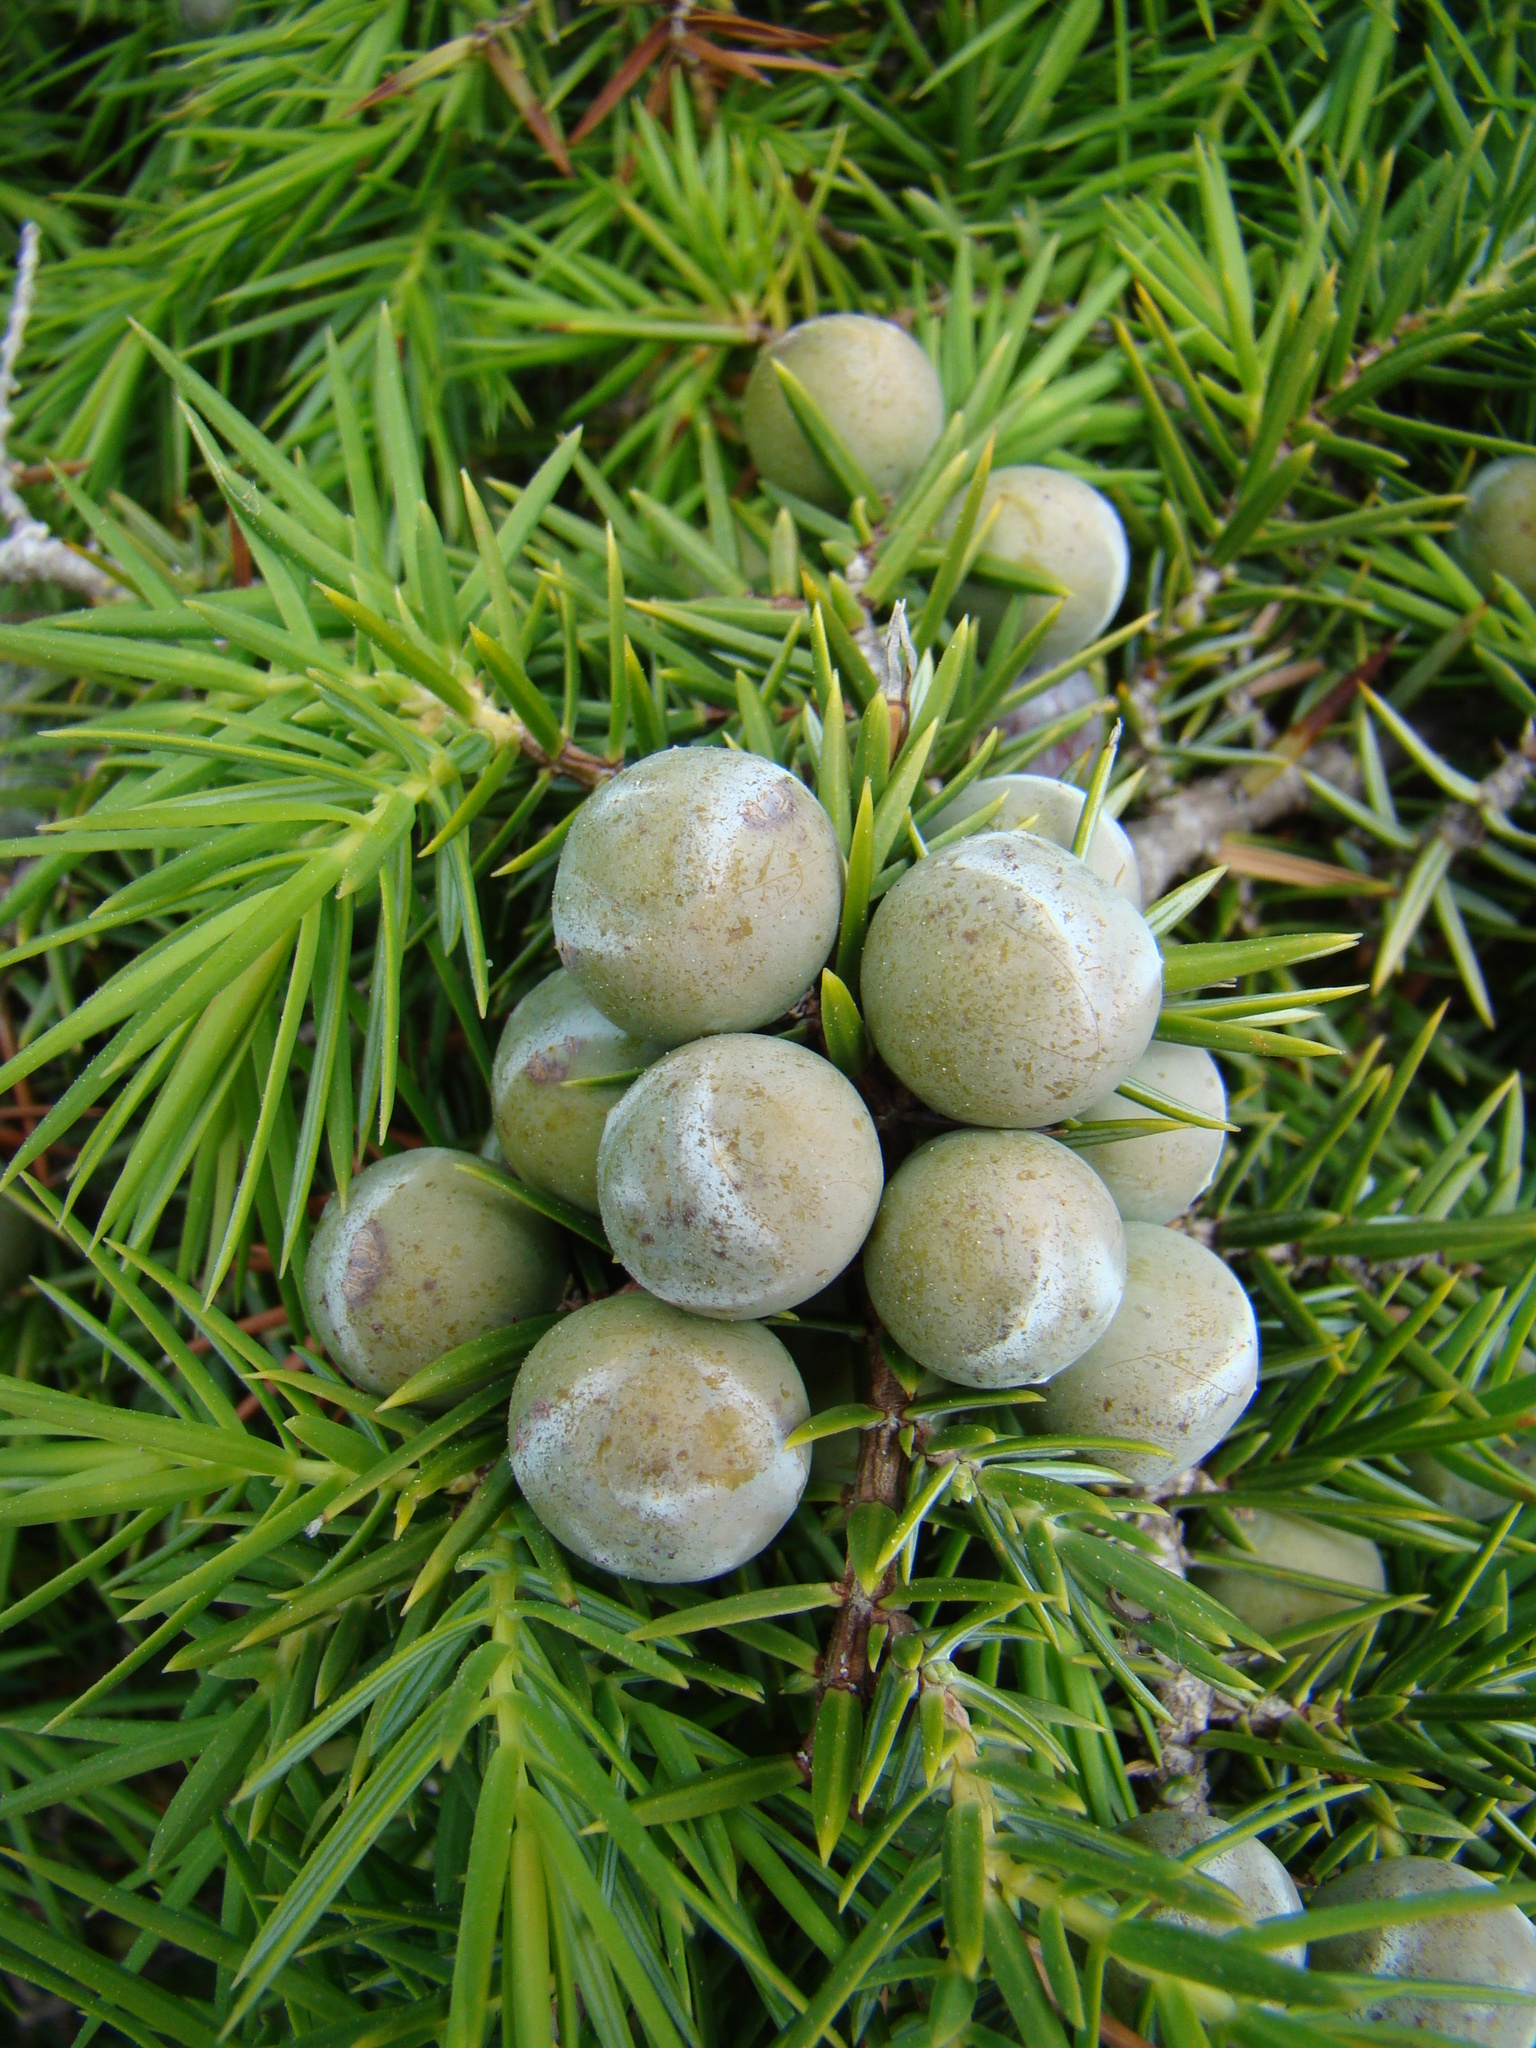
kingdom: Plantae
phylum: Tracheophyta
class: Pinopsida
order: Pinales
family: Cupressaceae
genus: Juniperus
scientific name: Juniperus oxycedrus
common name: Prickly juniper
